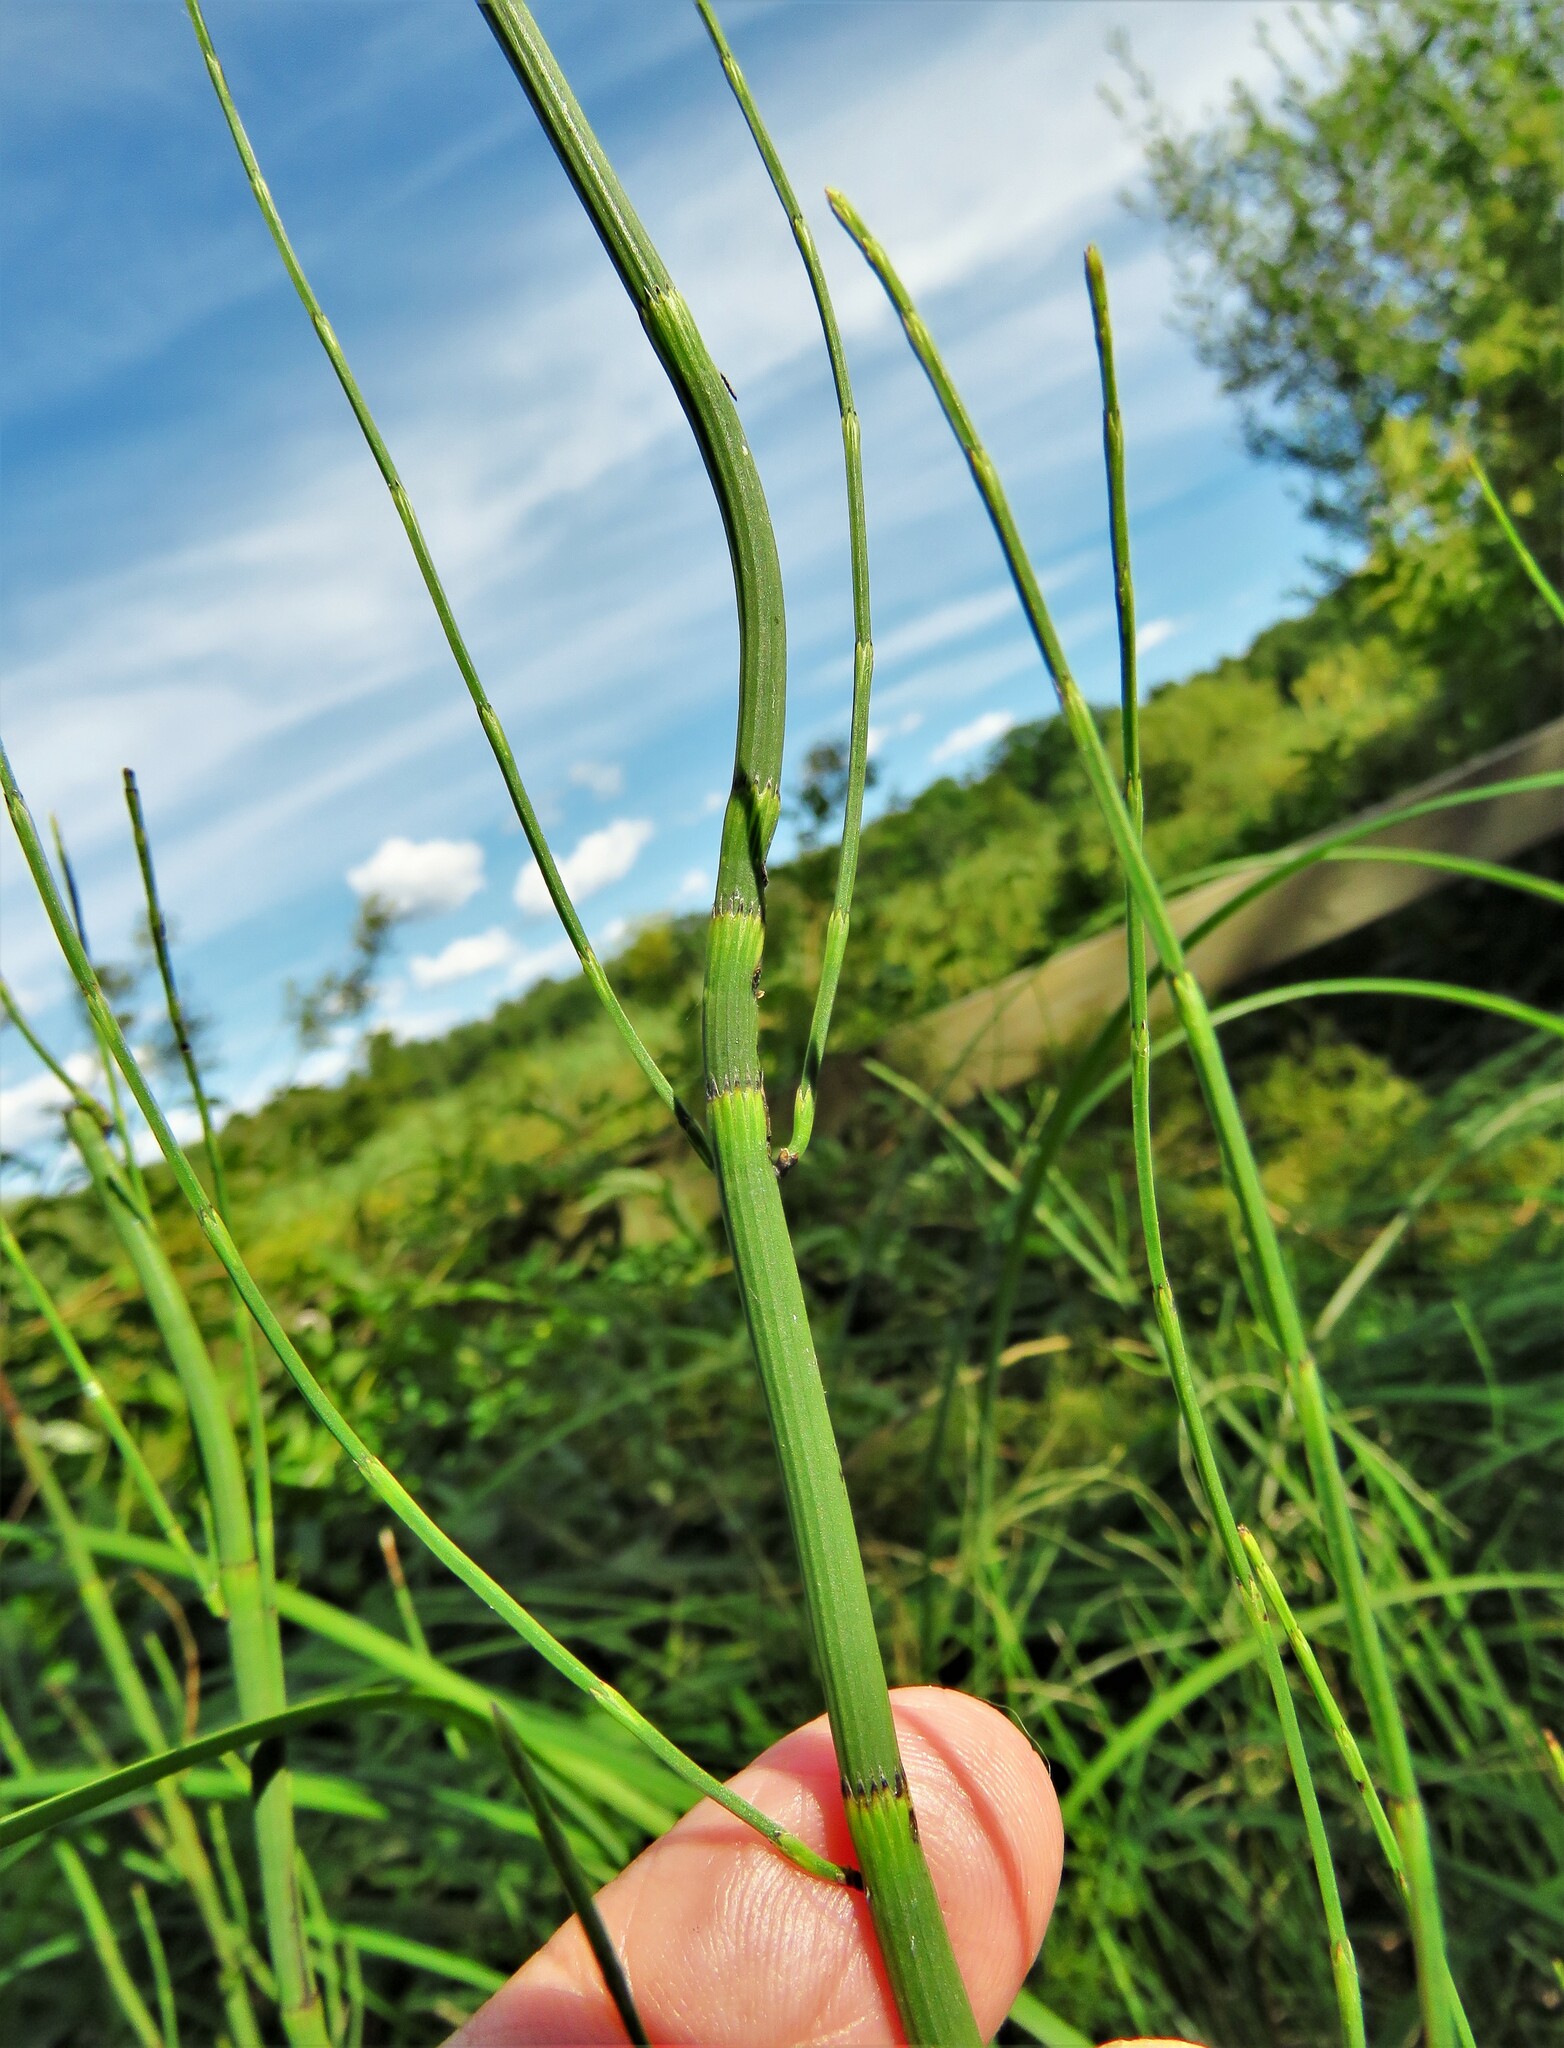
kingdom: Plantae
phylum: Tracheophyta
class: Polypodiopsida
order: Equisetales
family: Equisetaceae
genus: Equisetum
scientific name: Equisetum fluviatile
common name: Water horsetail
